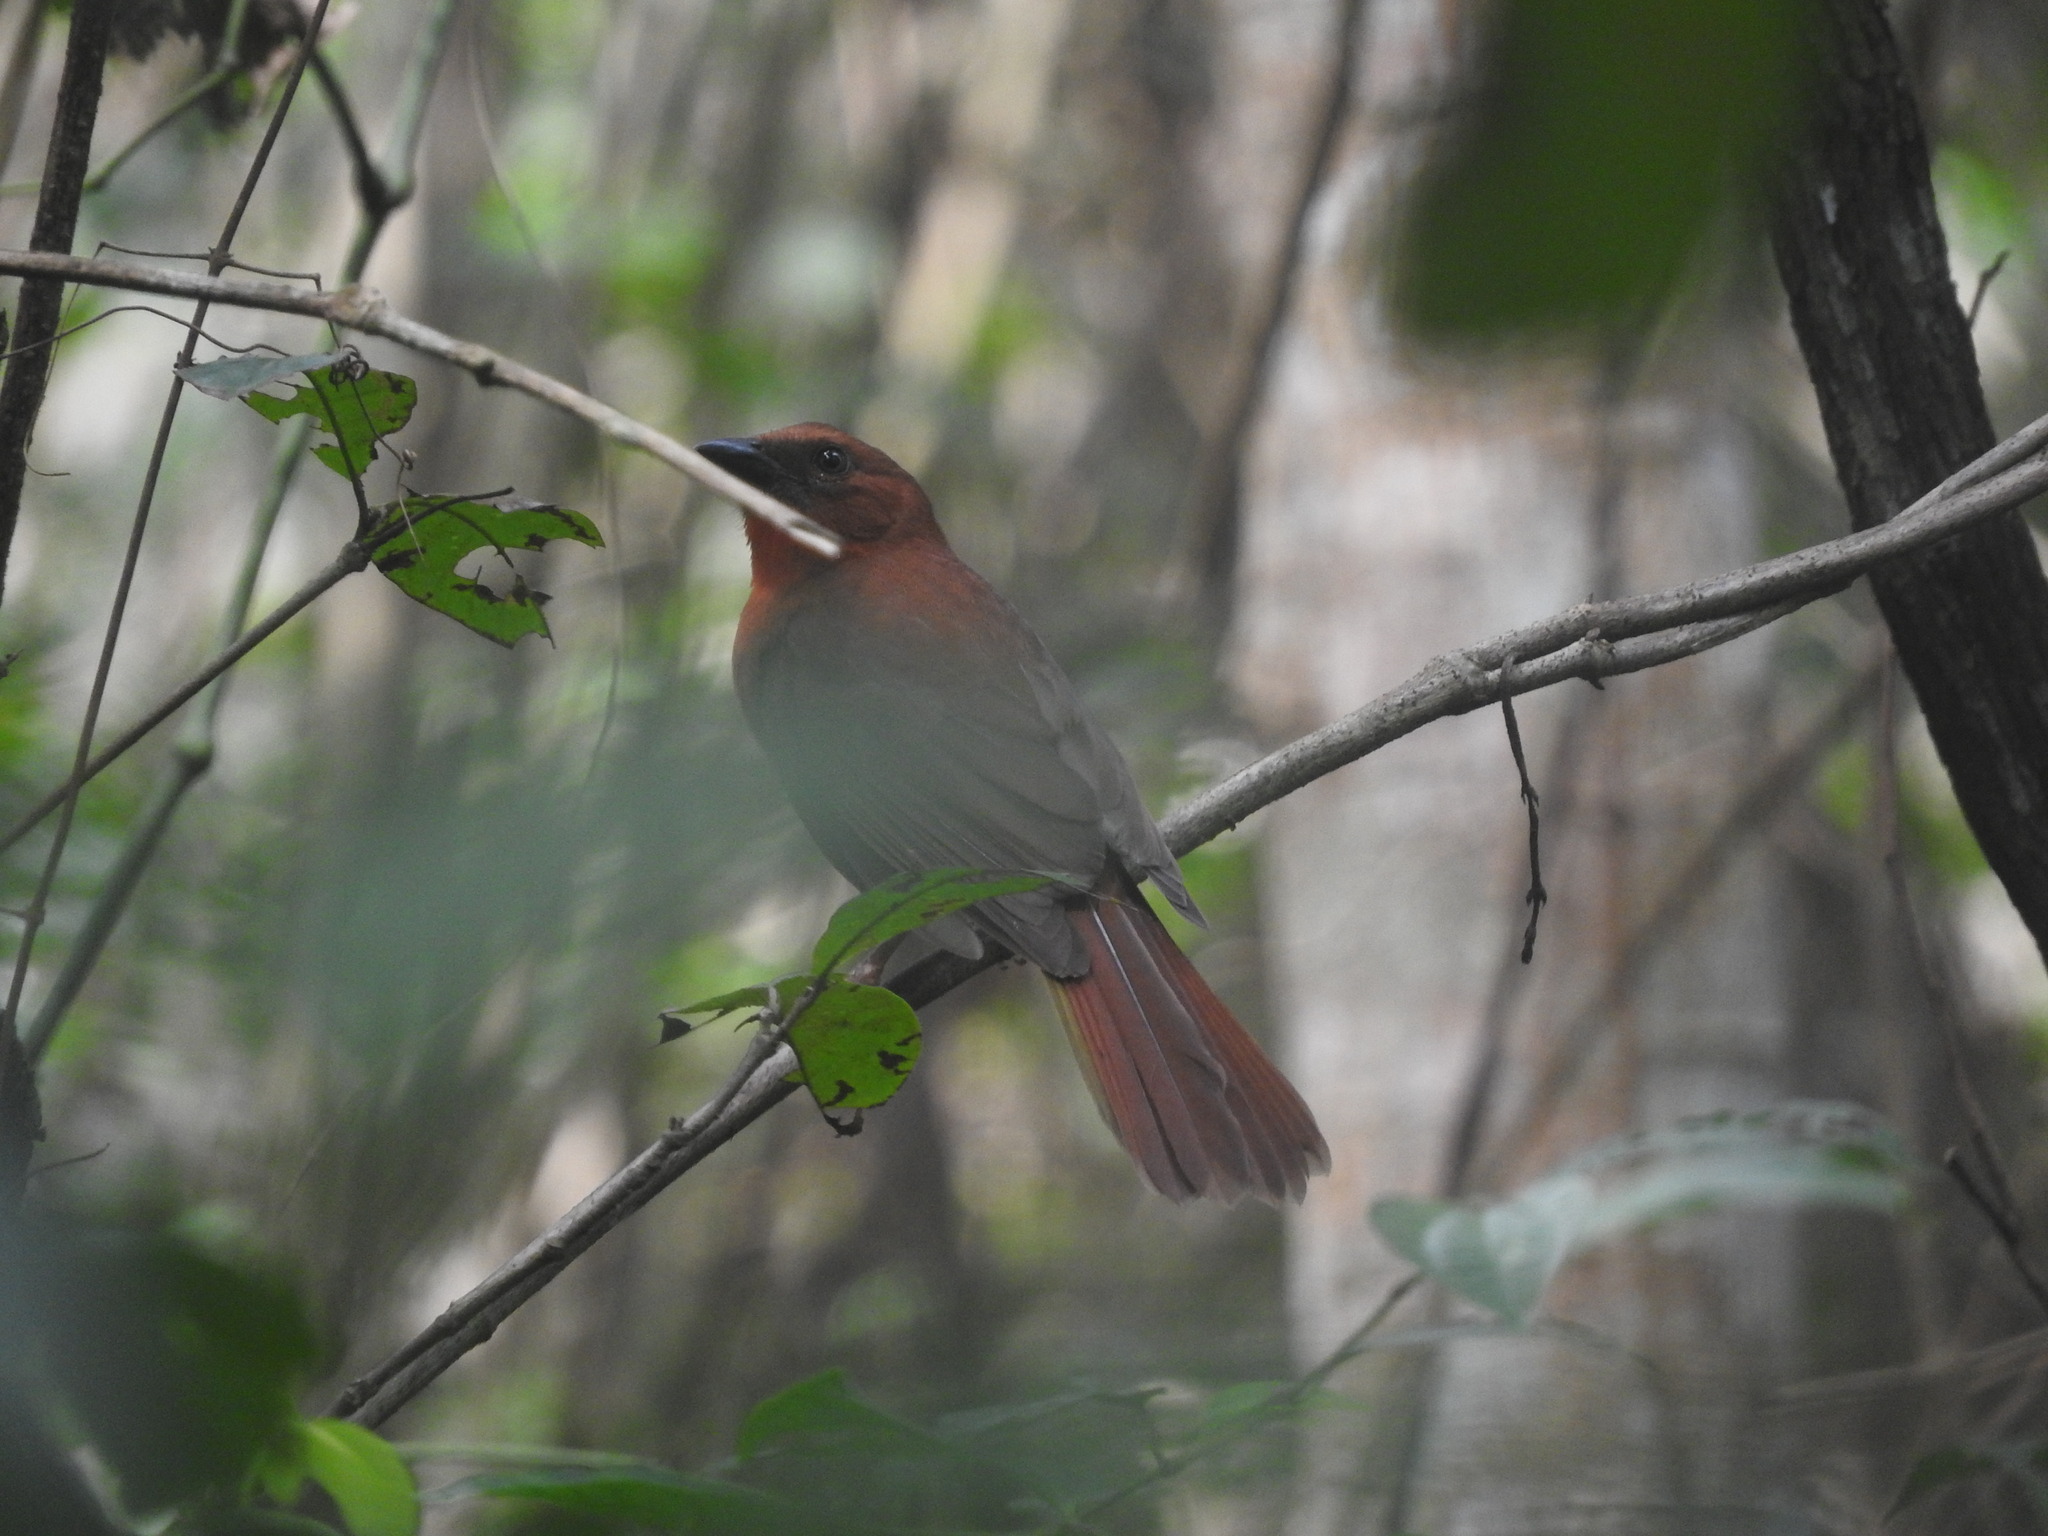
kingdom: Animalia
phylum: Chordata
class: Aves
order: Passeriformes
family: Cardinalidae
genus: Habia
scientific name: Habia fuscicauda
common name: Red-throated ant-tanager
